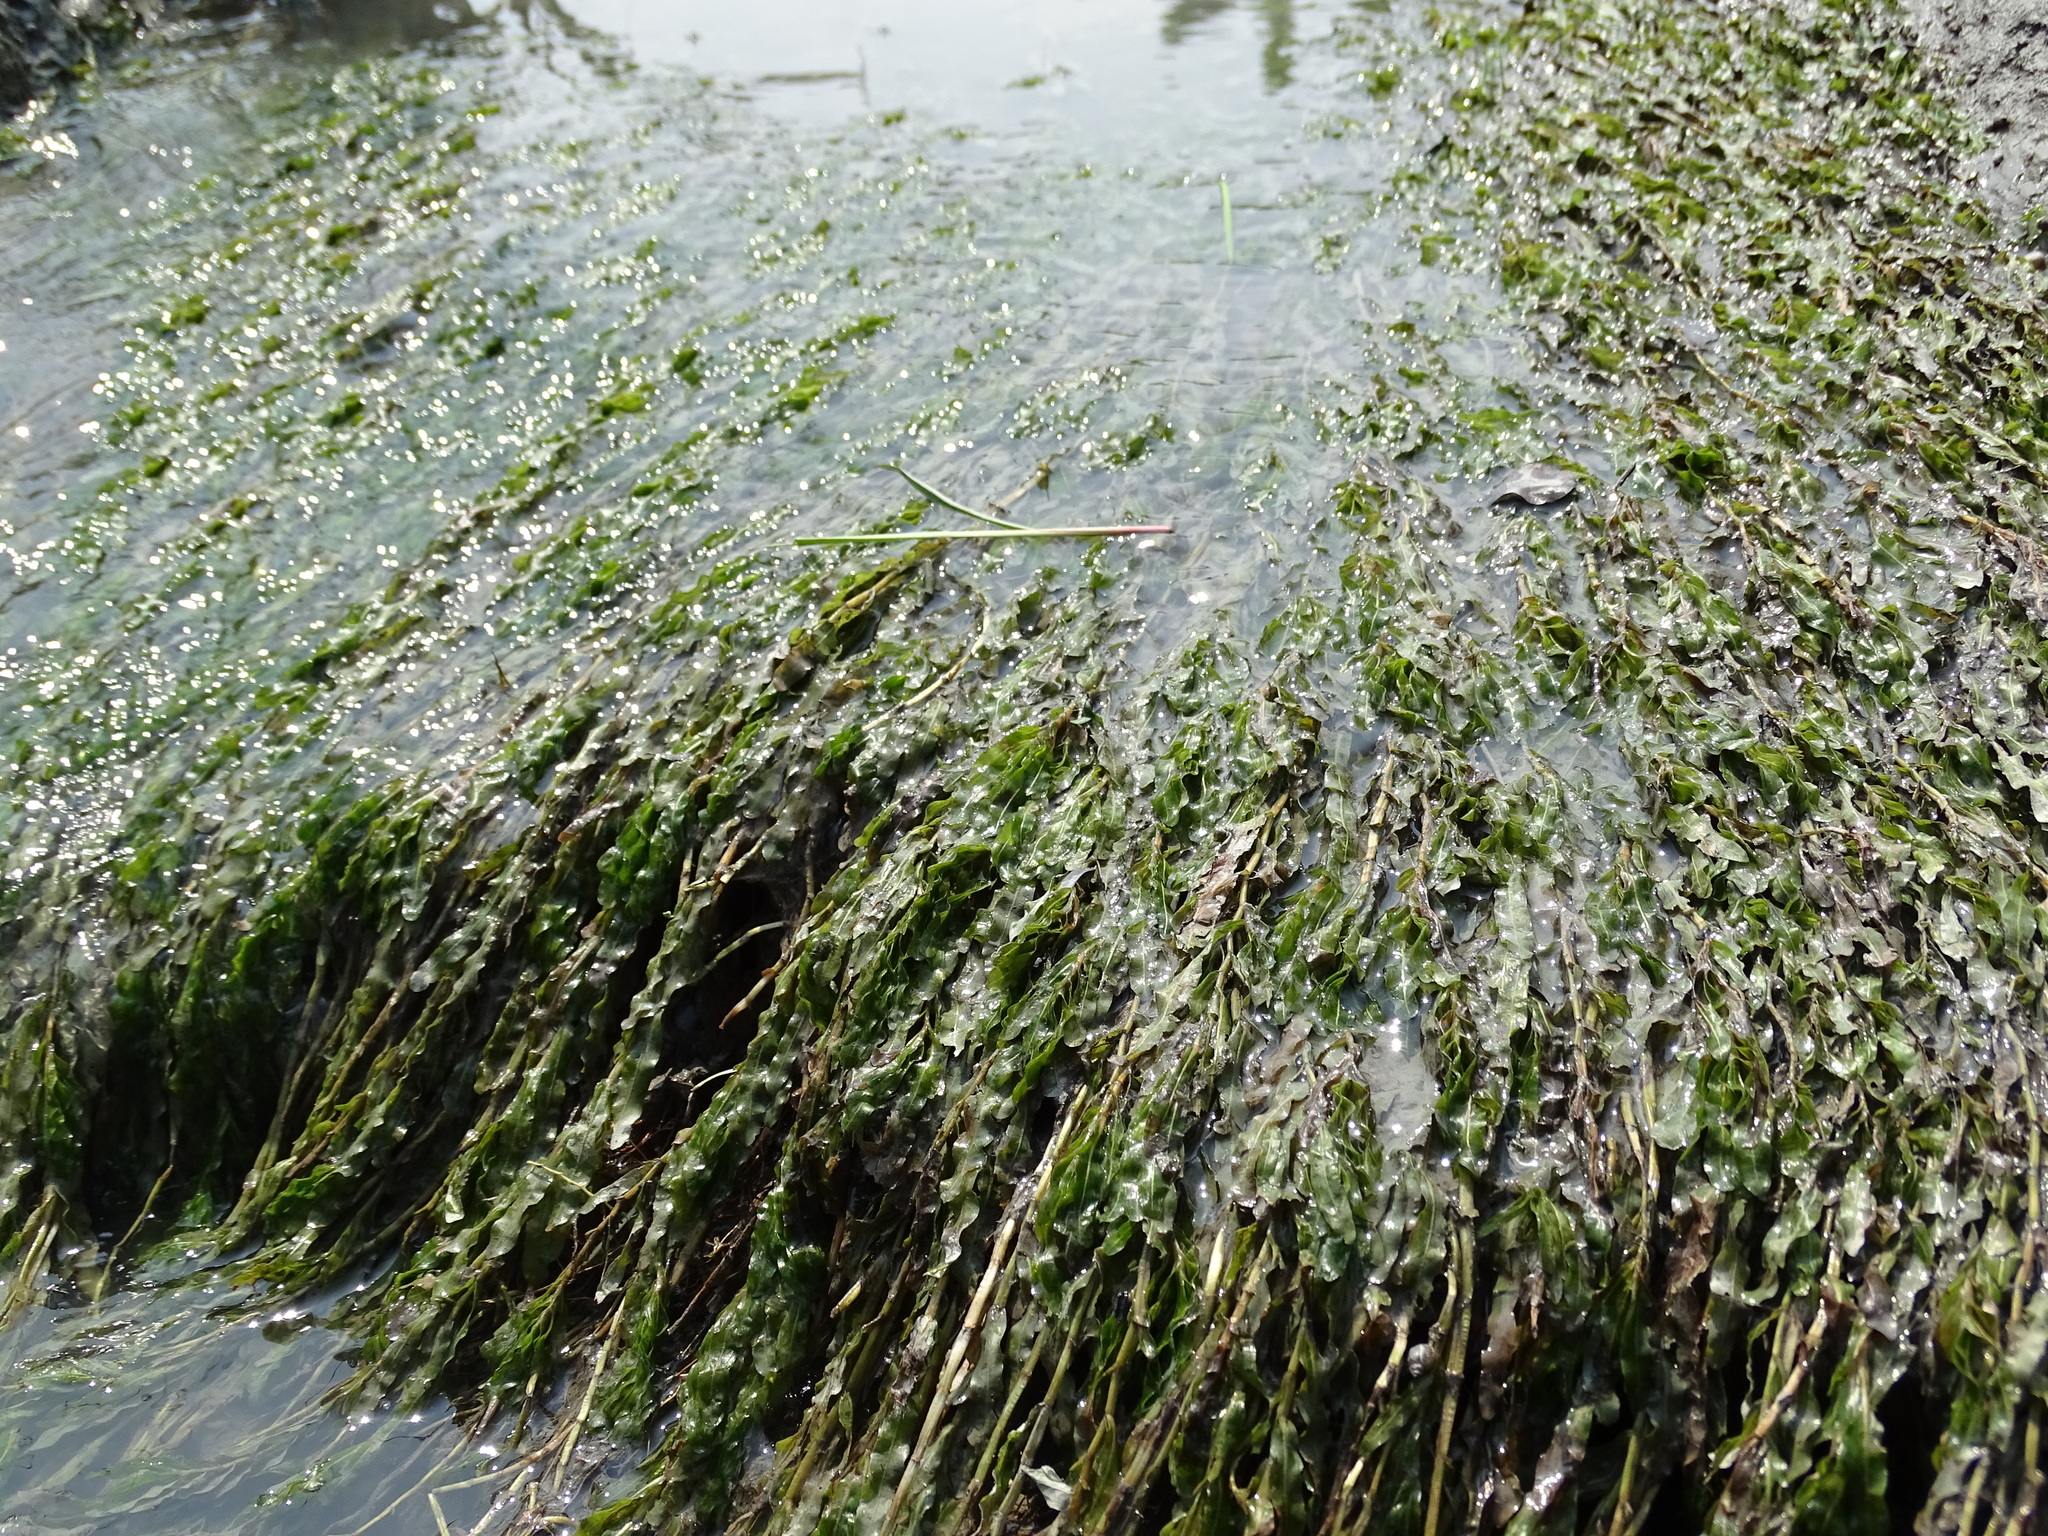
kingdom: Plantae
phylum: Tracheophyta
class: Liliopsida
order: Alismatales
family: Potamogetonaceae
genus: Potamogeton
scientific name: Potamogeton crispus
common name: Curled pondweed
